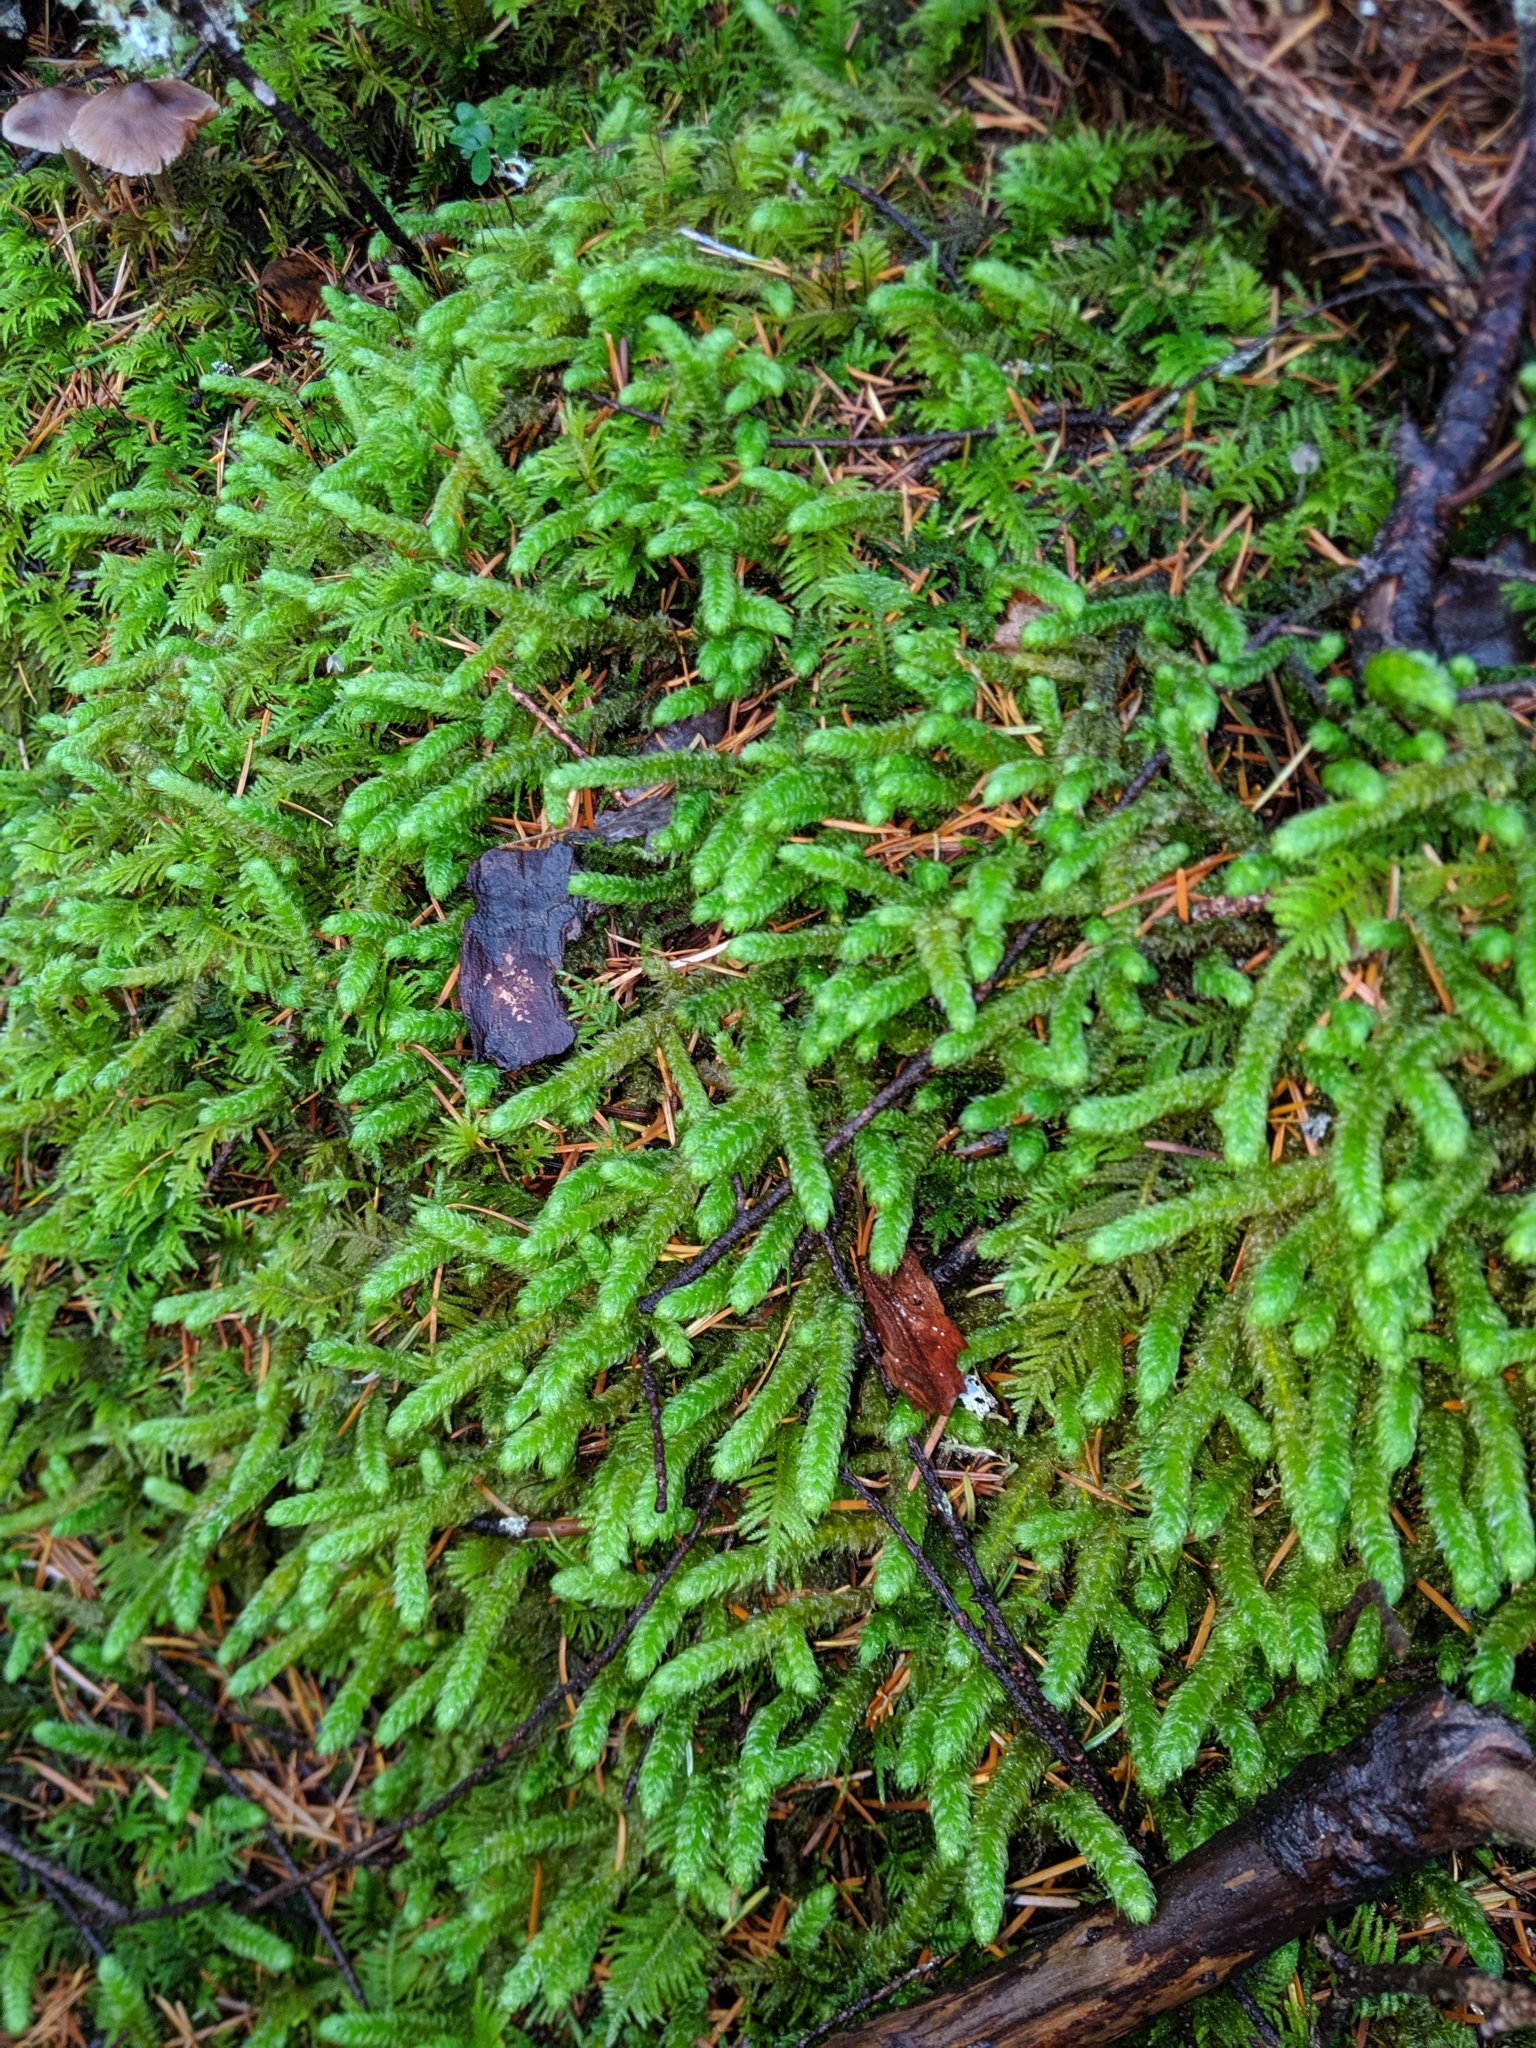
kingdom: Plantae
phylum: Bryophyta
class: Bryopsida
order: Hypnales
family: Hylocomiaceae
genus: Rhytidiopsis
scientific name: Rhytidiopsis robusta
